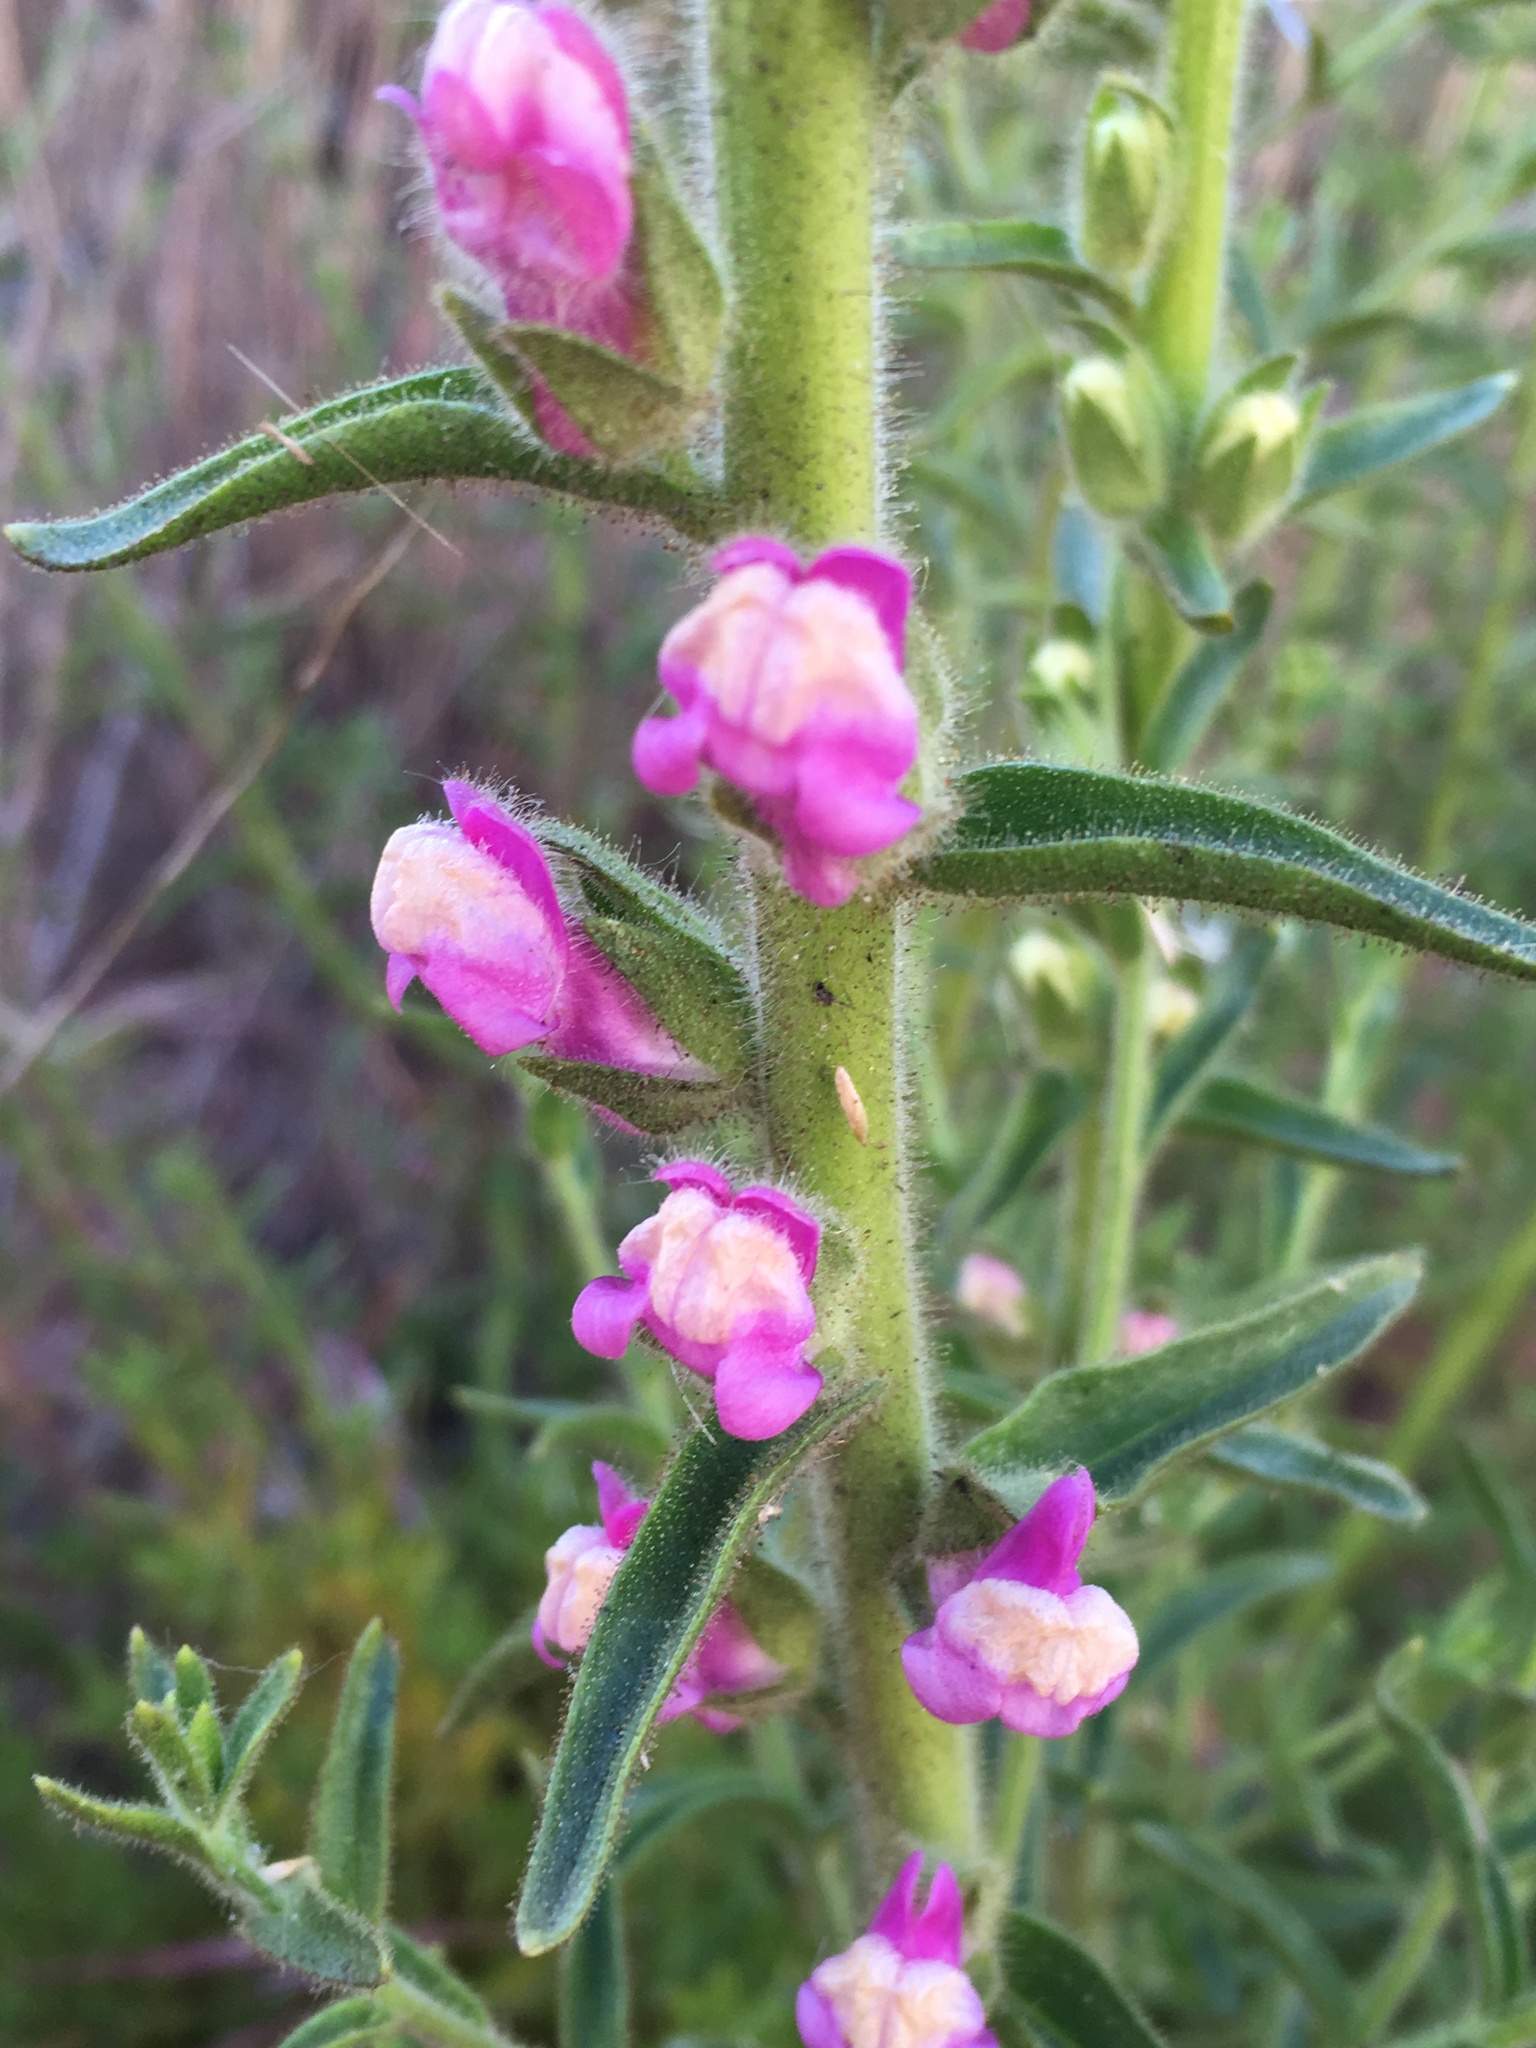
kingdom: Plantae
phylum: Tracheophyta
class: Magnoliopsida
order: Lamiales
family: Plantaginaceae
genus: Sairocarpus
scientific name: Sairocarpus multiflorus
